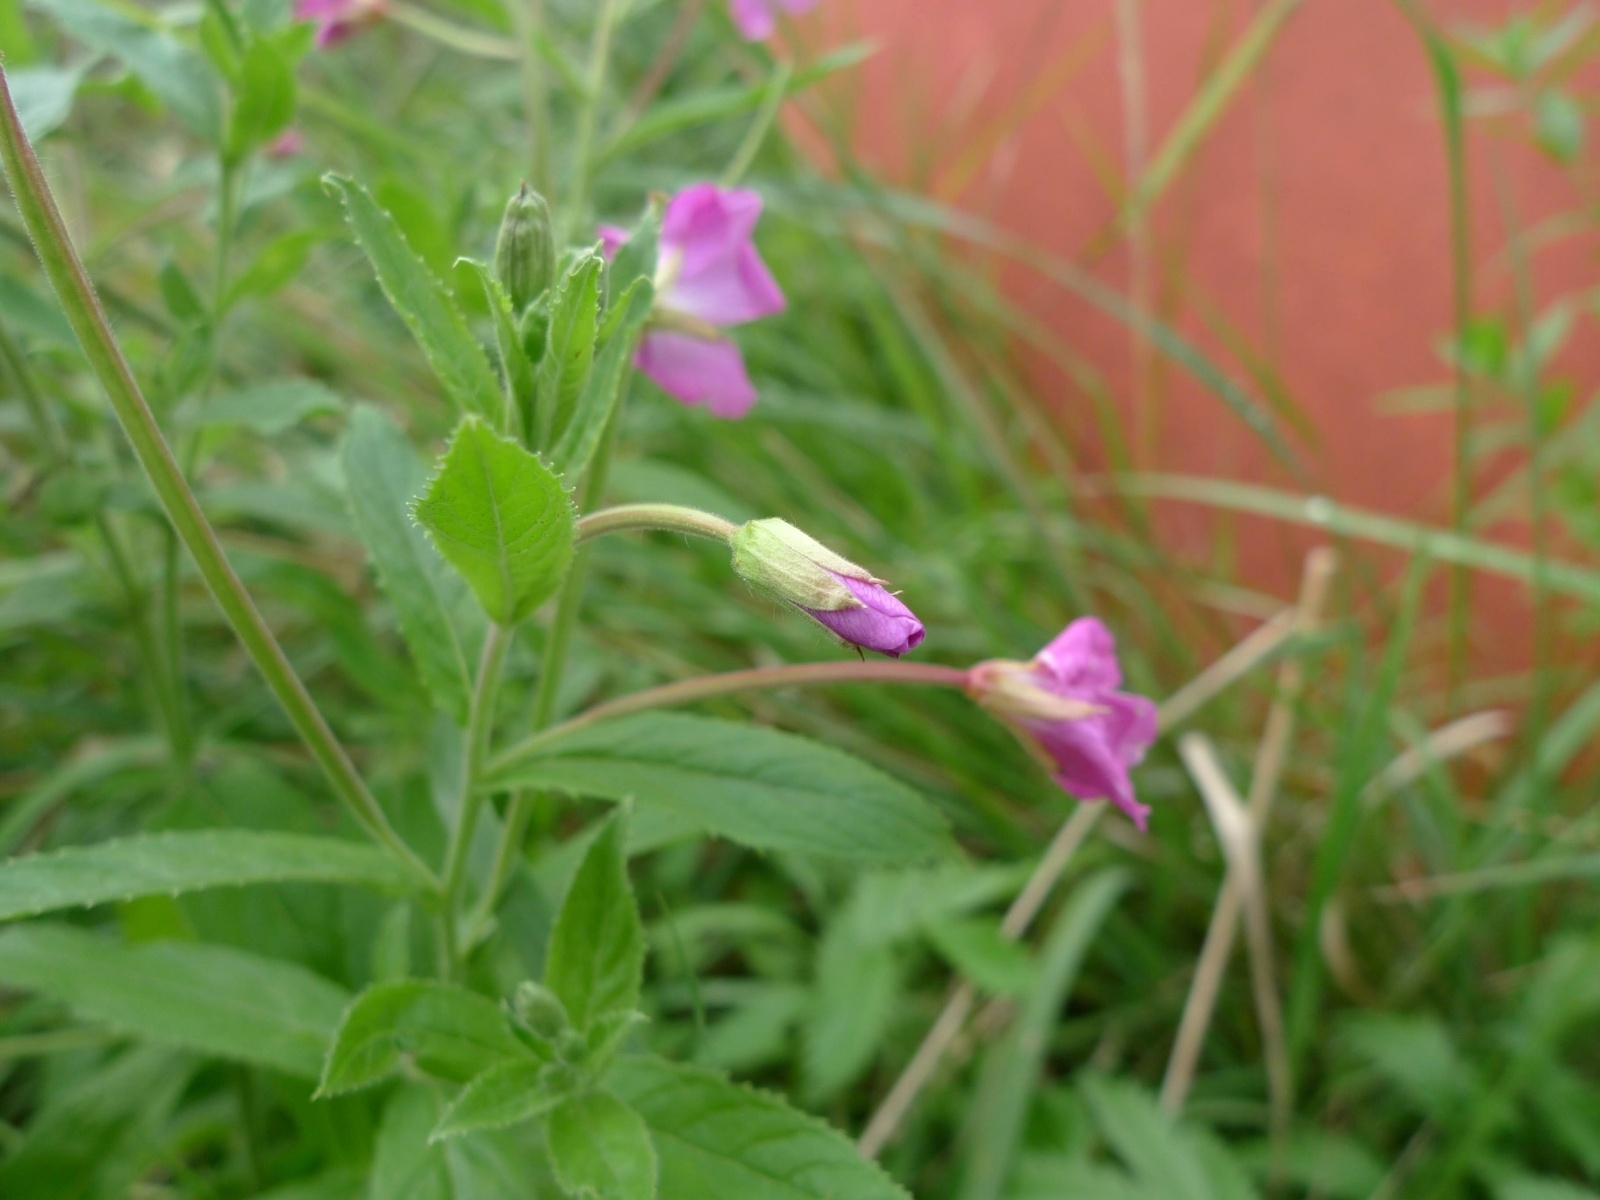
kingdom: Plantae
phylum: Tracheophyta
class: Magnoliopsida
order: Myrtales
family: Onagraceae
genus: Epilobium
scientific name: Epilobium hirsutum
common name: Great willowherb
